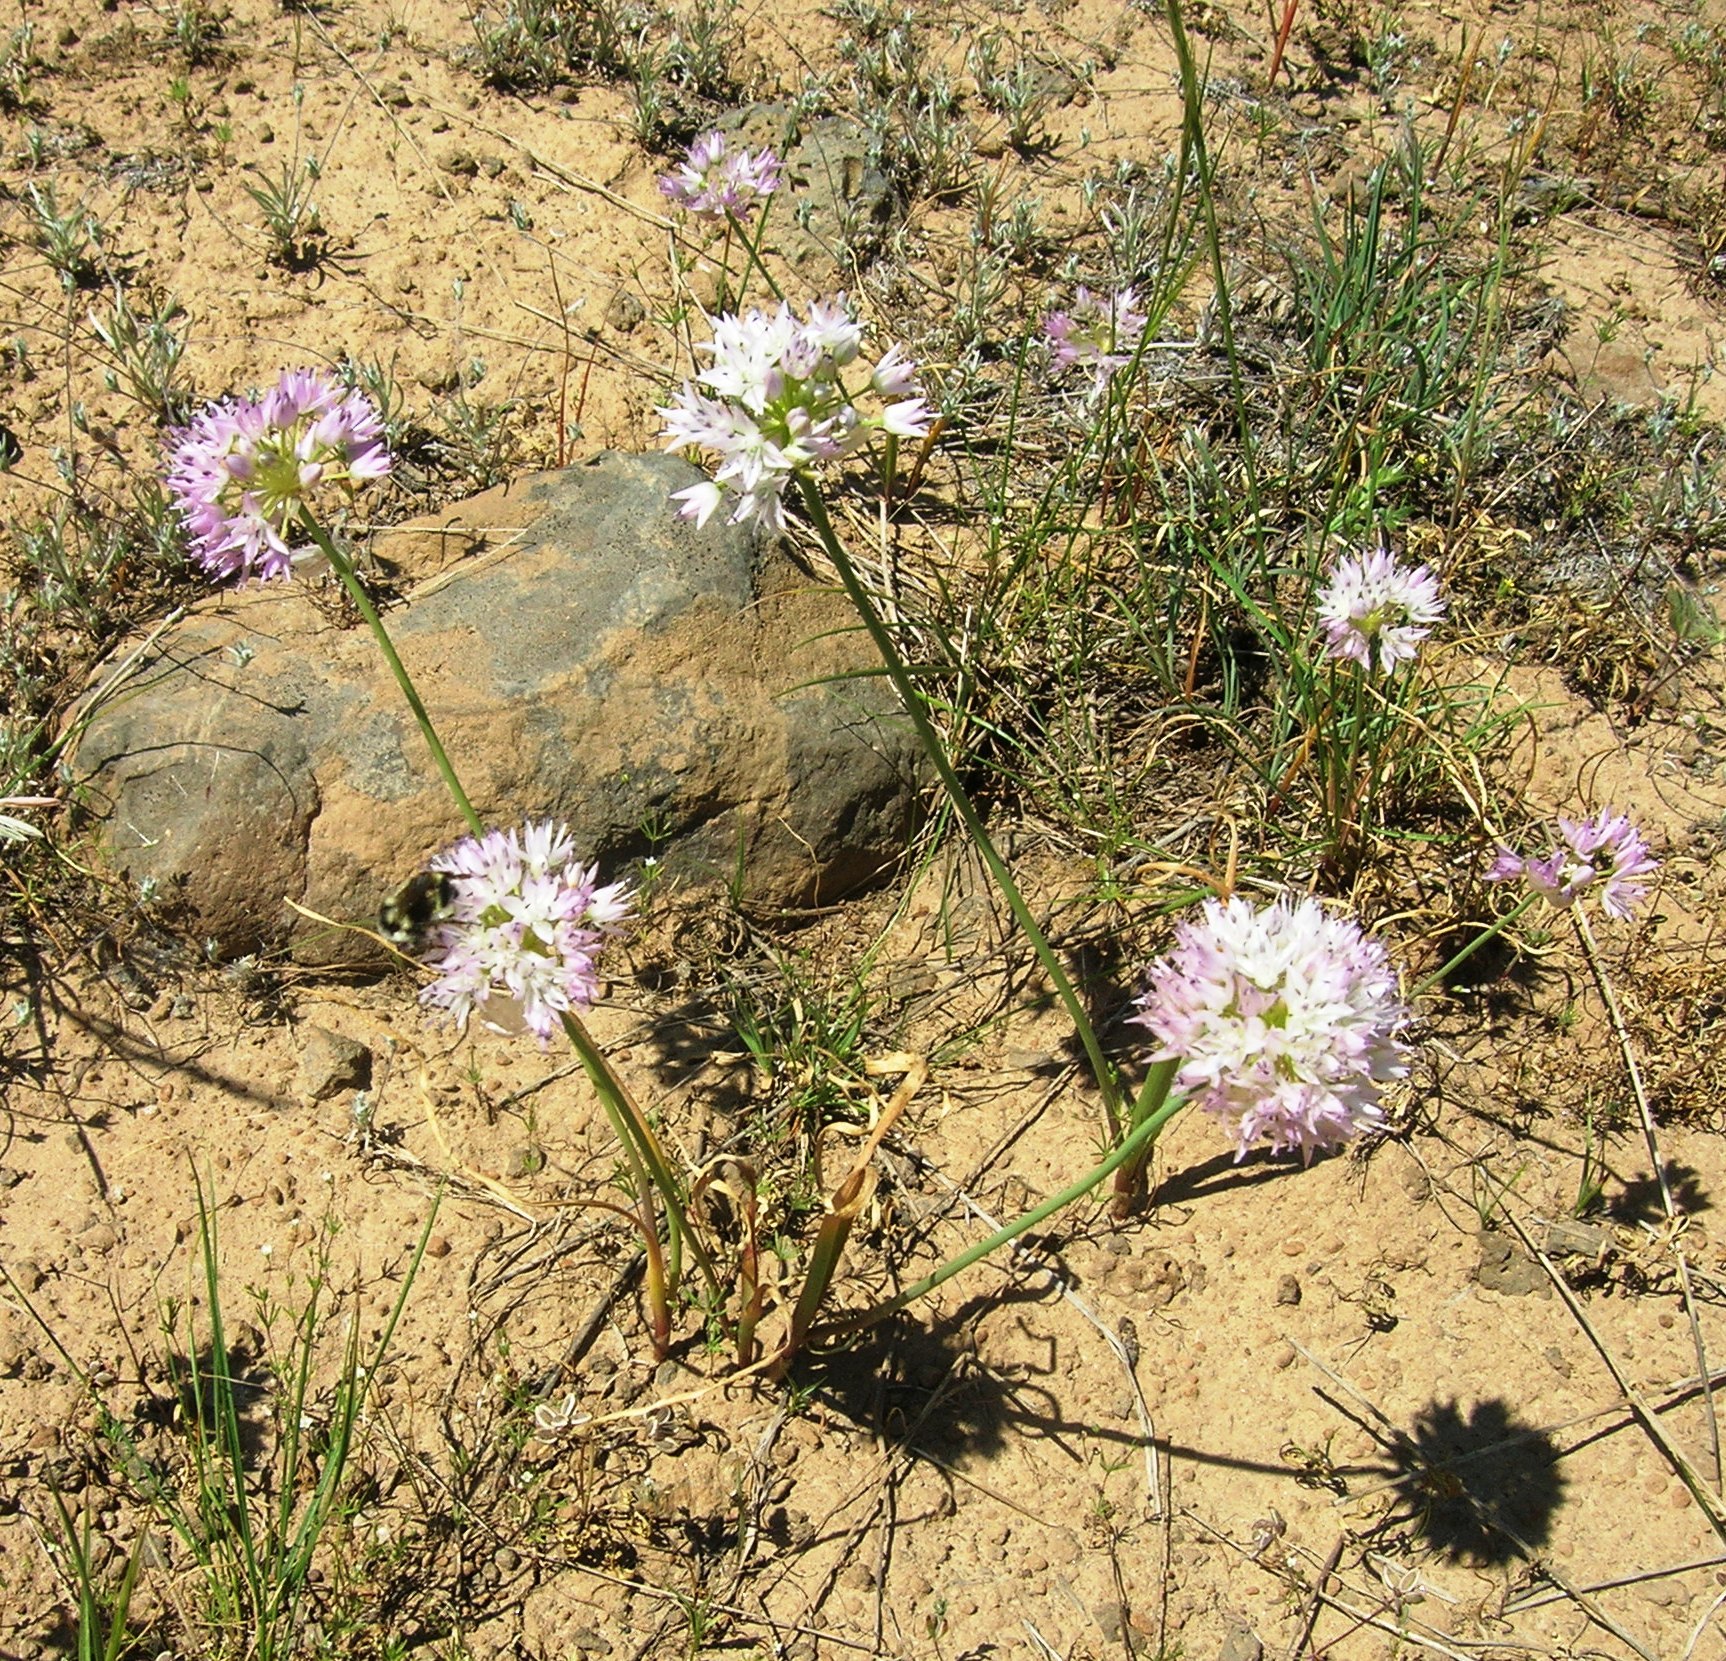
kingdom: Plantae
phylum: Tracheophyta
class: Liliopsida
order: Asparagales
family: Amaryllidaceae
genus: Allium
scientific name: Allium nevii
